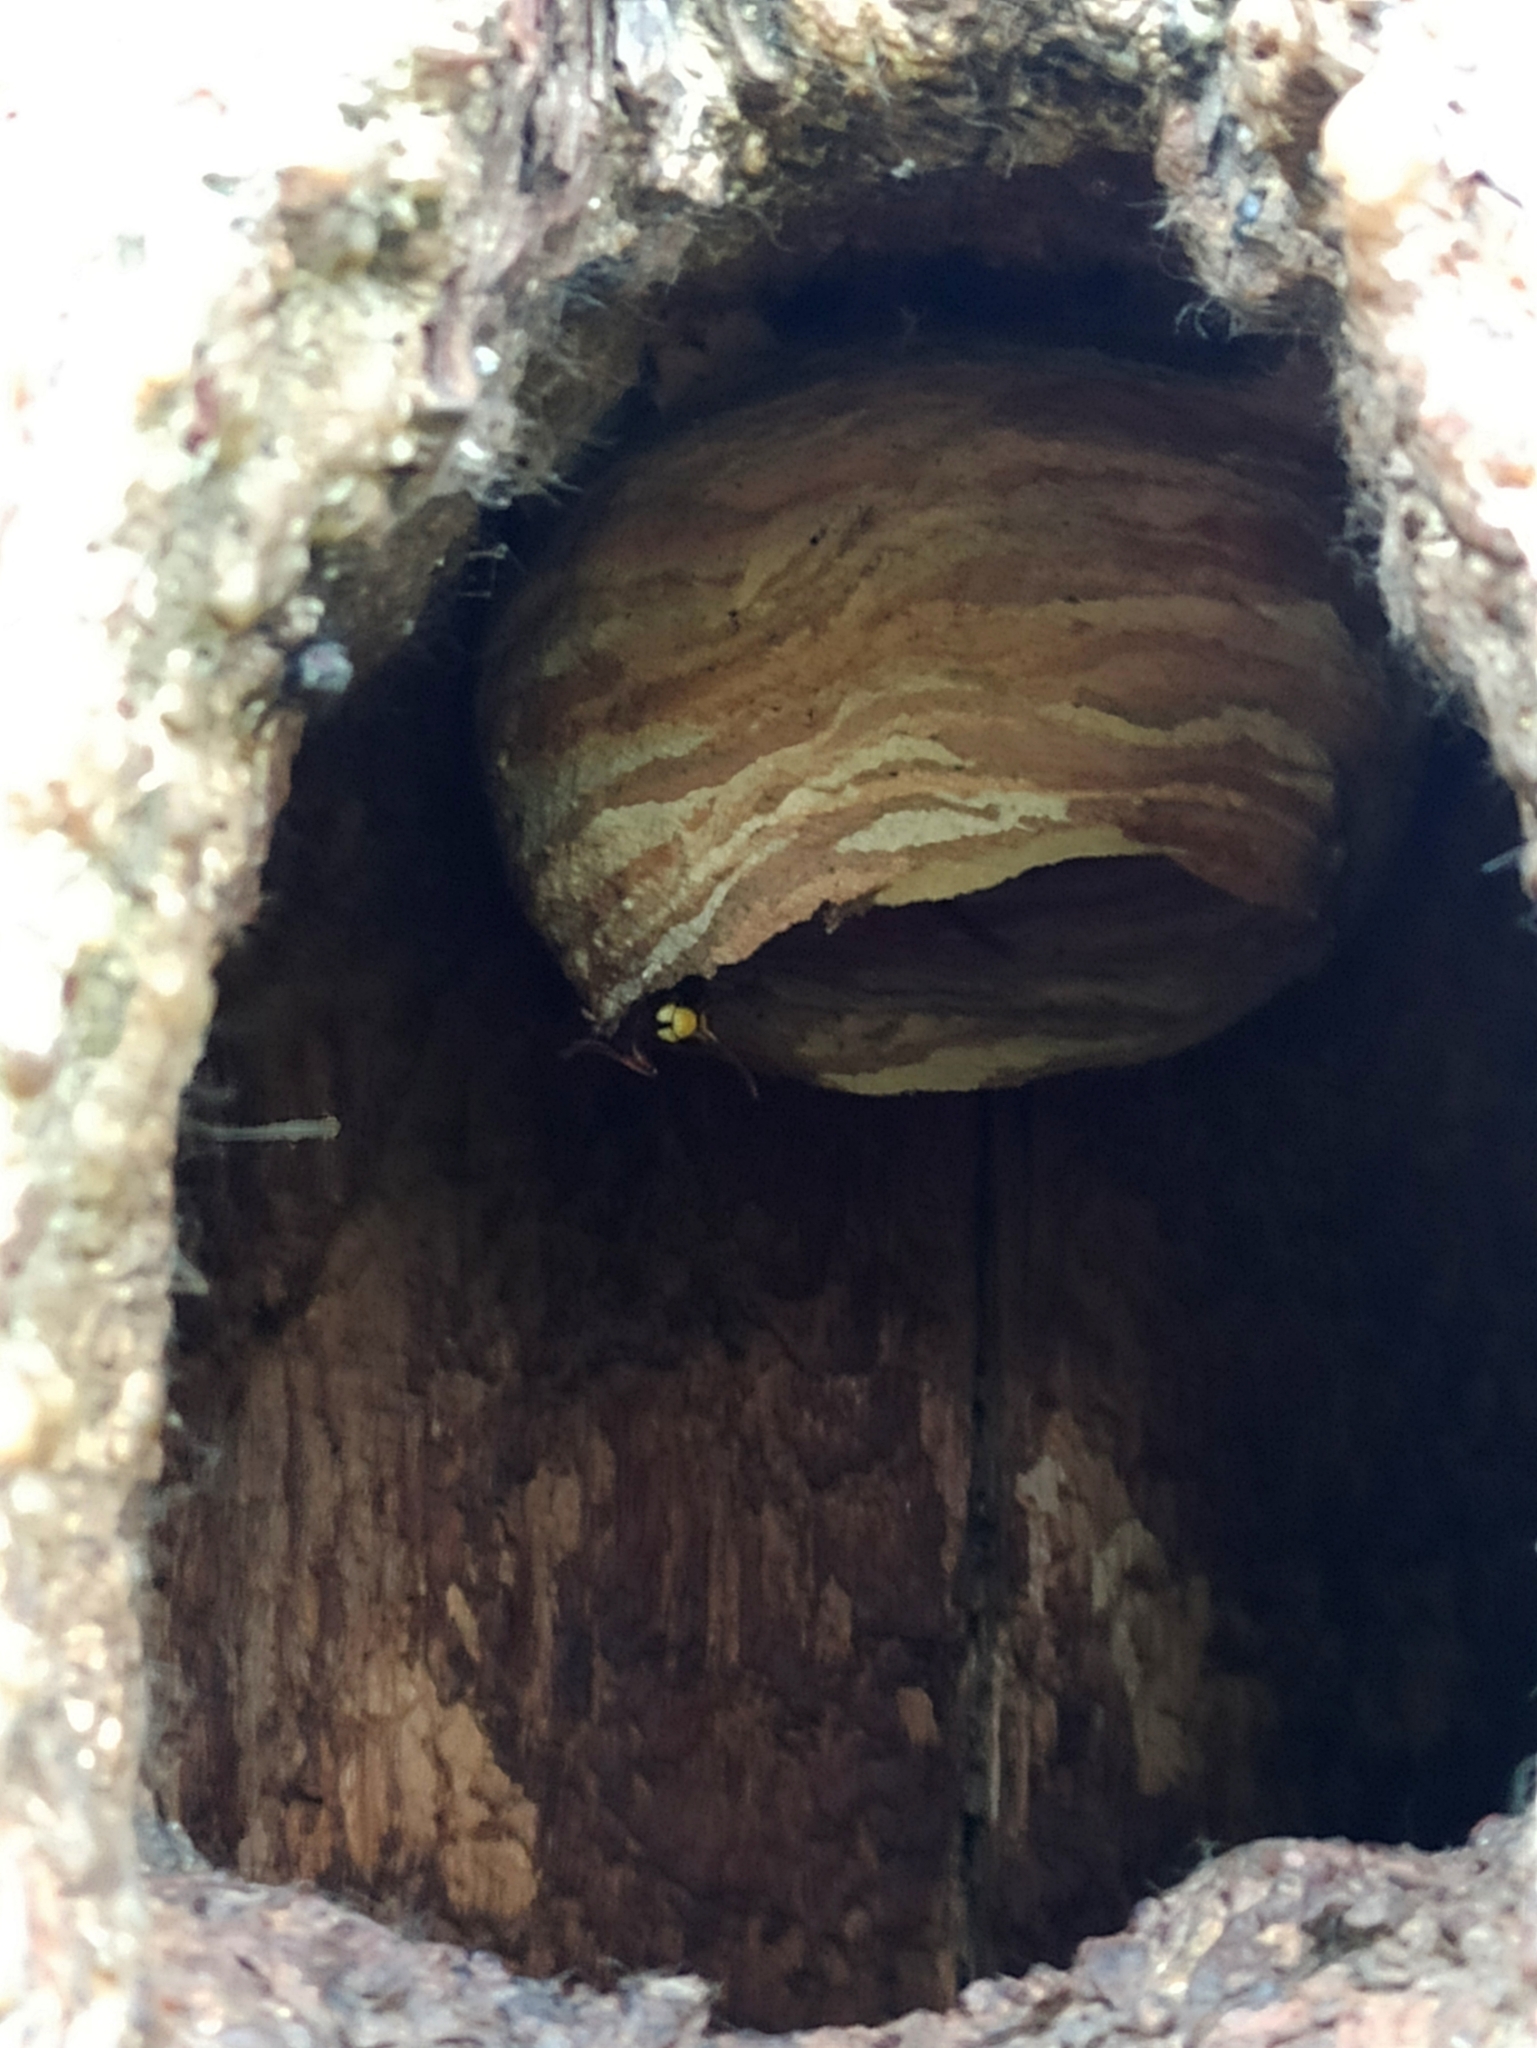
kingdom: Animalia
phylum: Arthropoda
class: Insecta
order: Hymenoptera
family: Vespidae
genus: Vespa
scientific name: Vespa crabro
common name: Hornet
